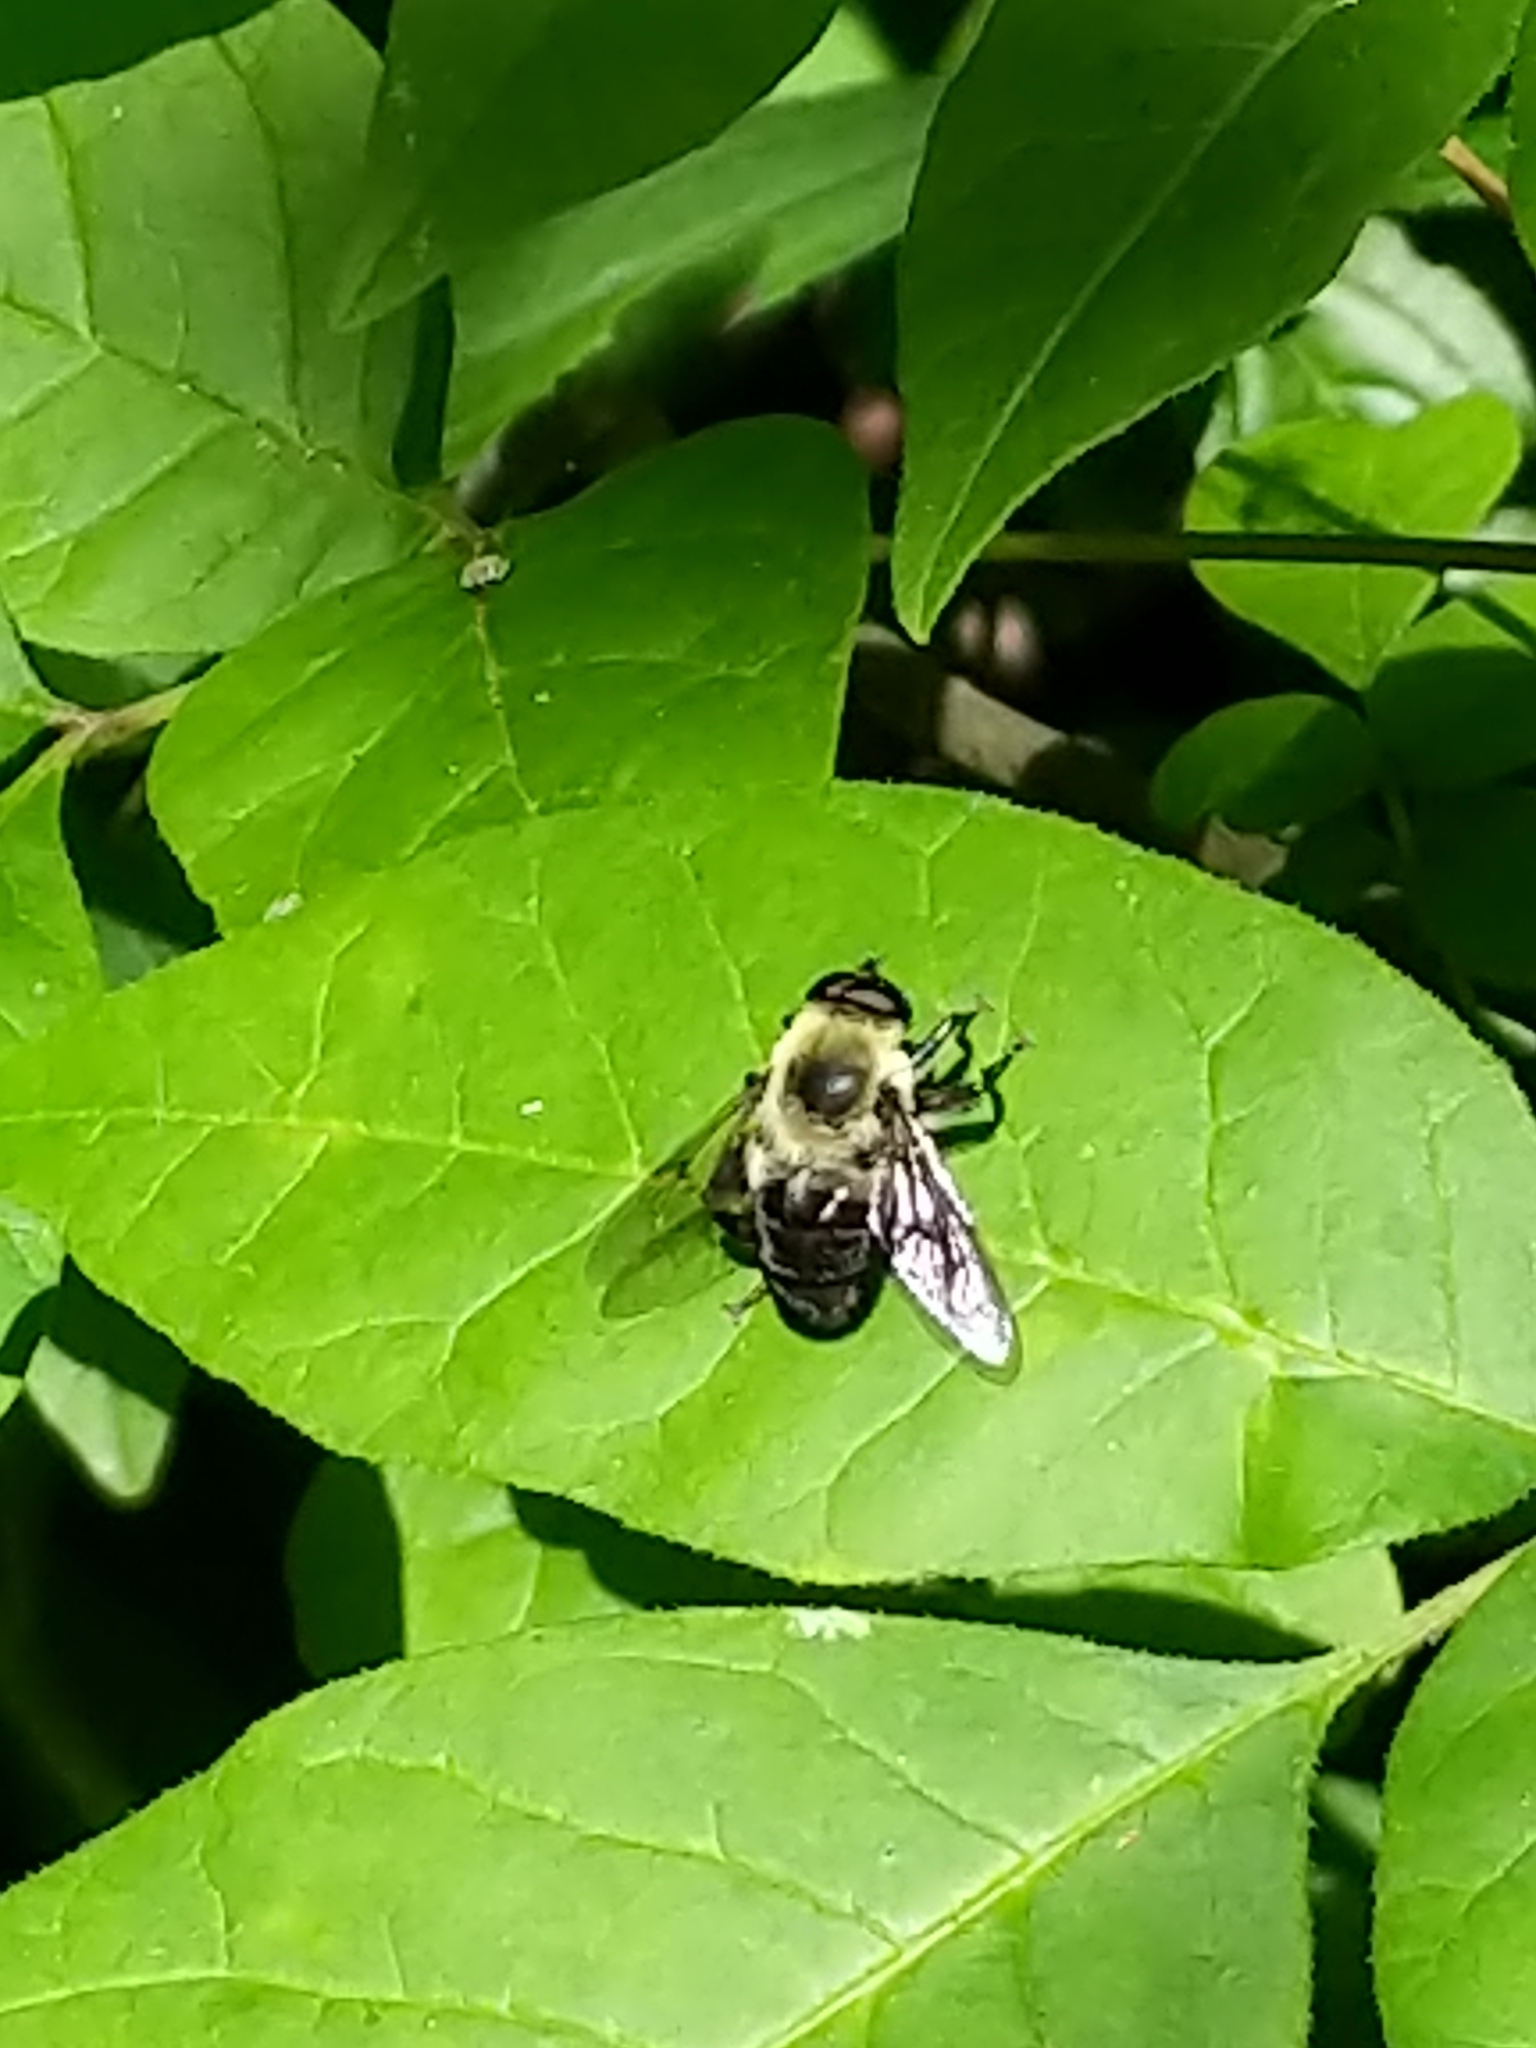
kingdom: Animalia
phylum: Arthropoda
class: Insecta
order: Diptera
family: Syrphidae
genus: Imatisma
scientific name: Imatisma posticata
